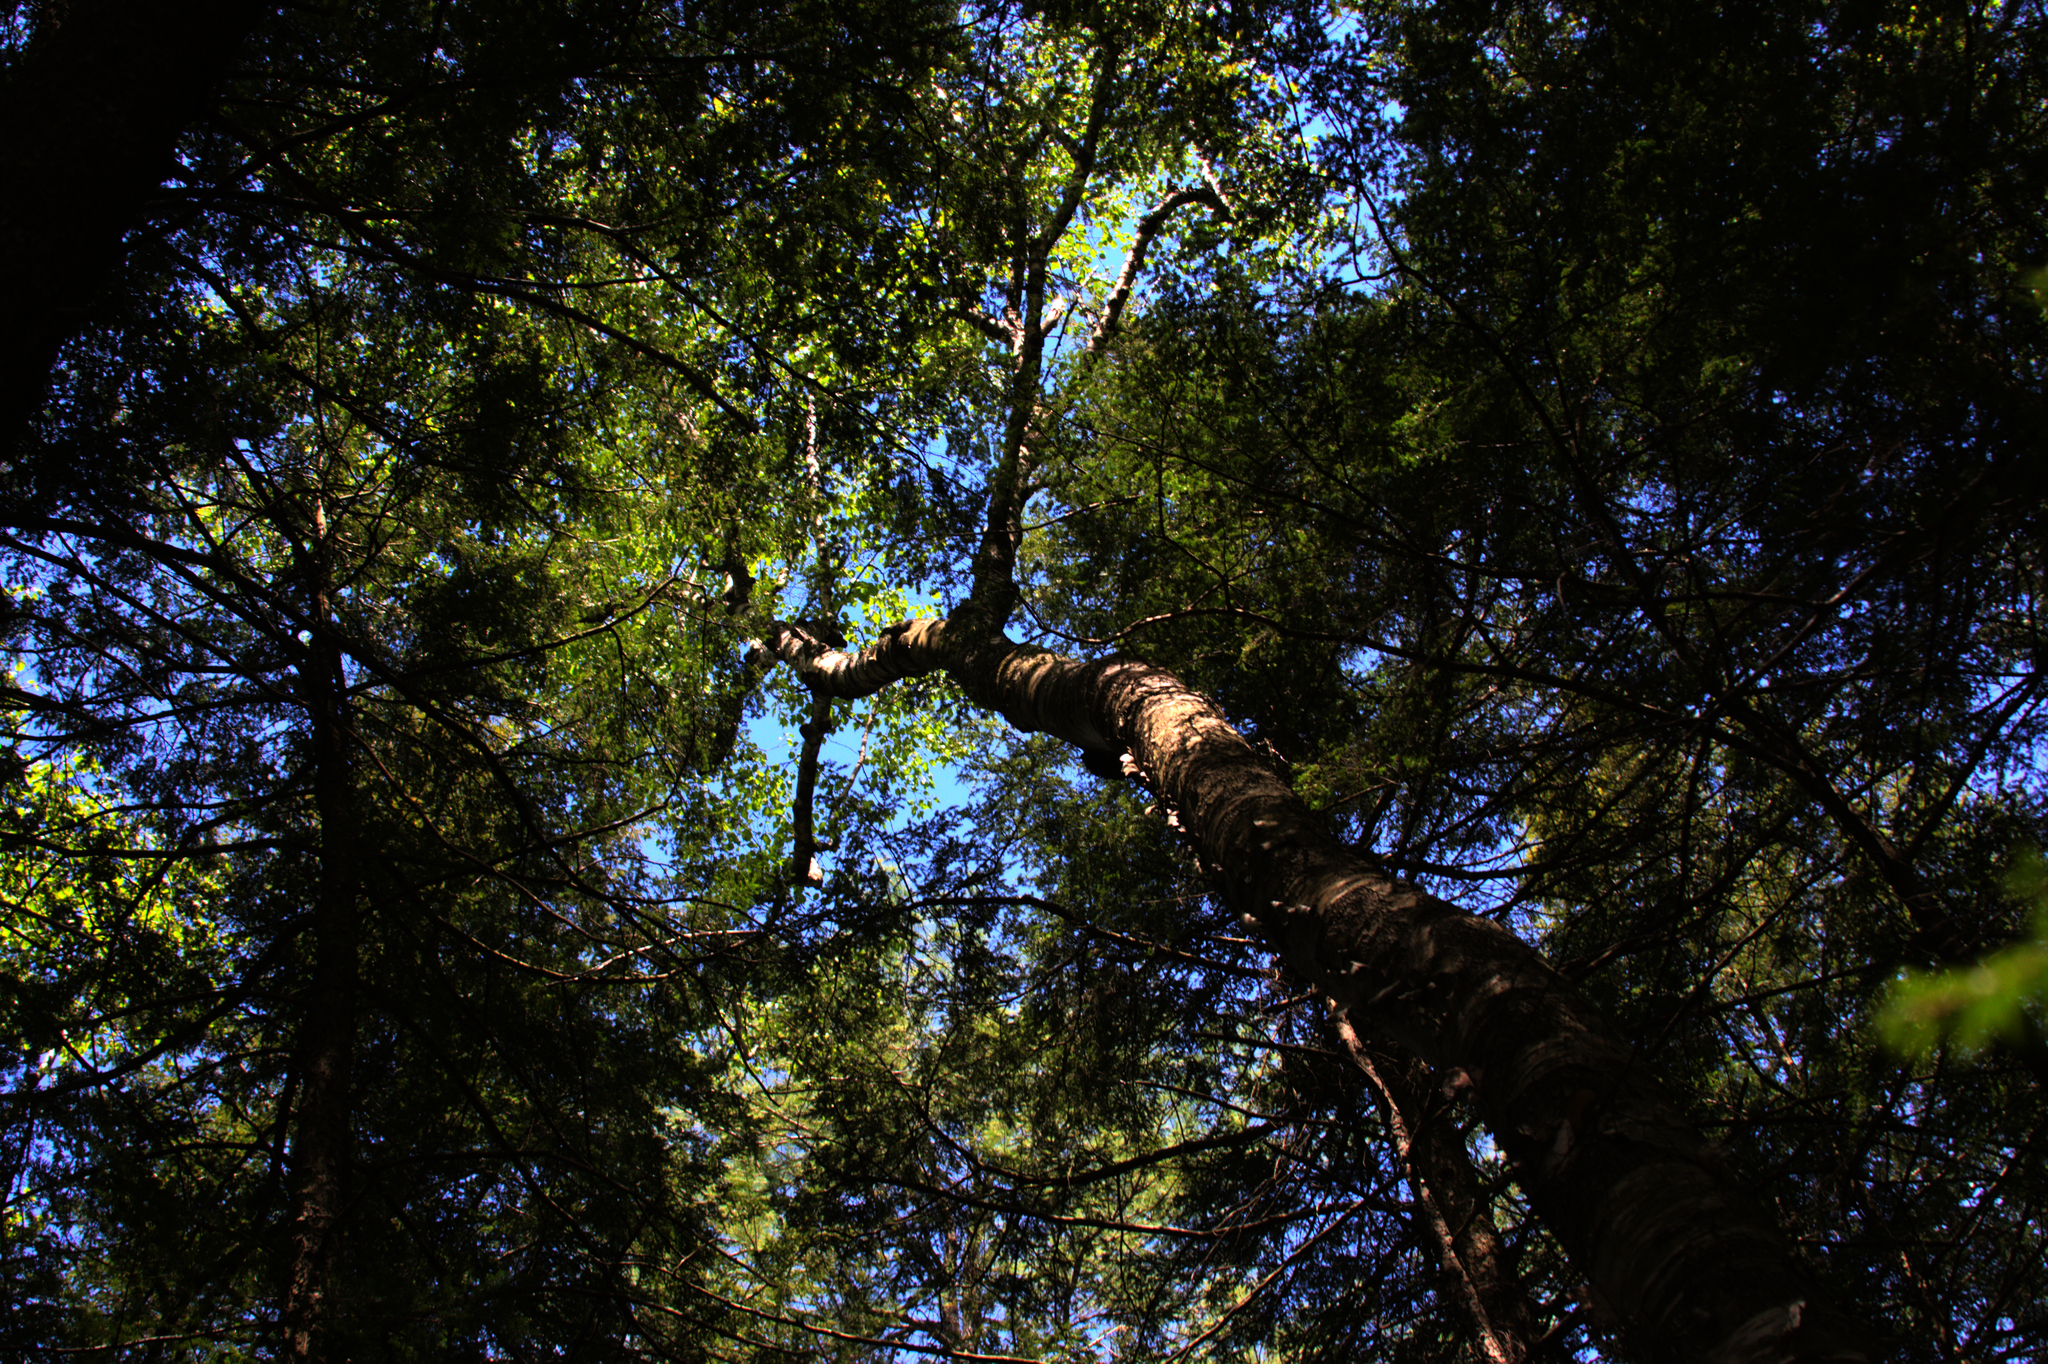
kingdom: Plantae
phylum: Tracheophyta
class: Magnoliopsida
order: Fagales
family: Betulaceae
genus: Betula
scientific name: Betula papyrifera
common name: Paper birch
